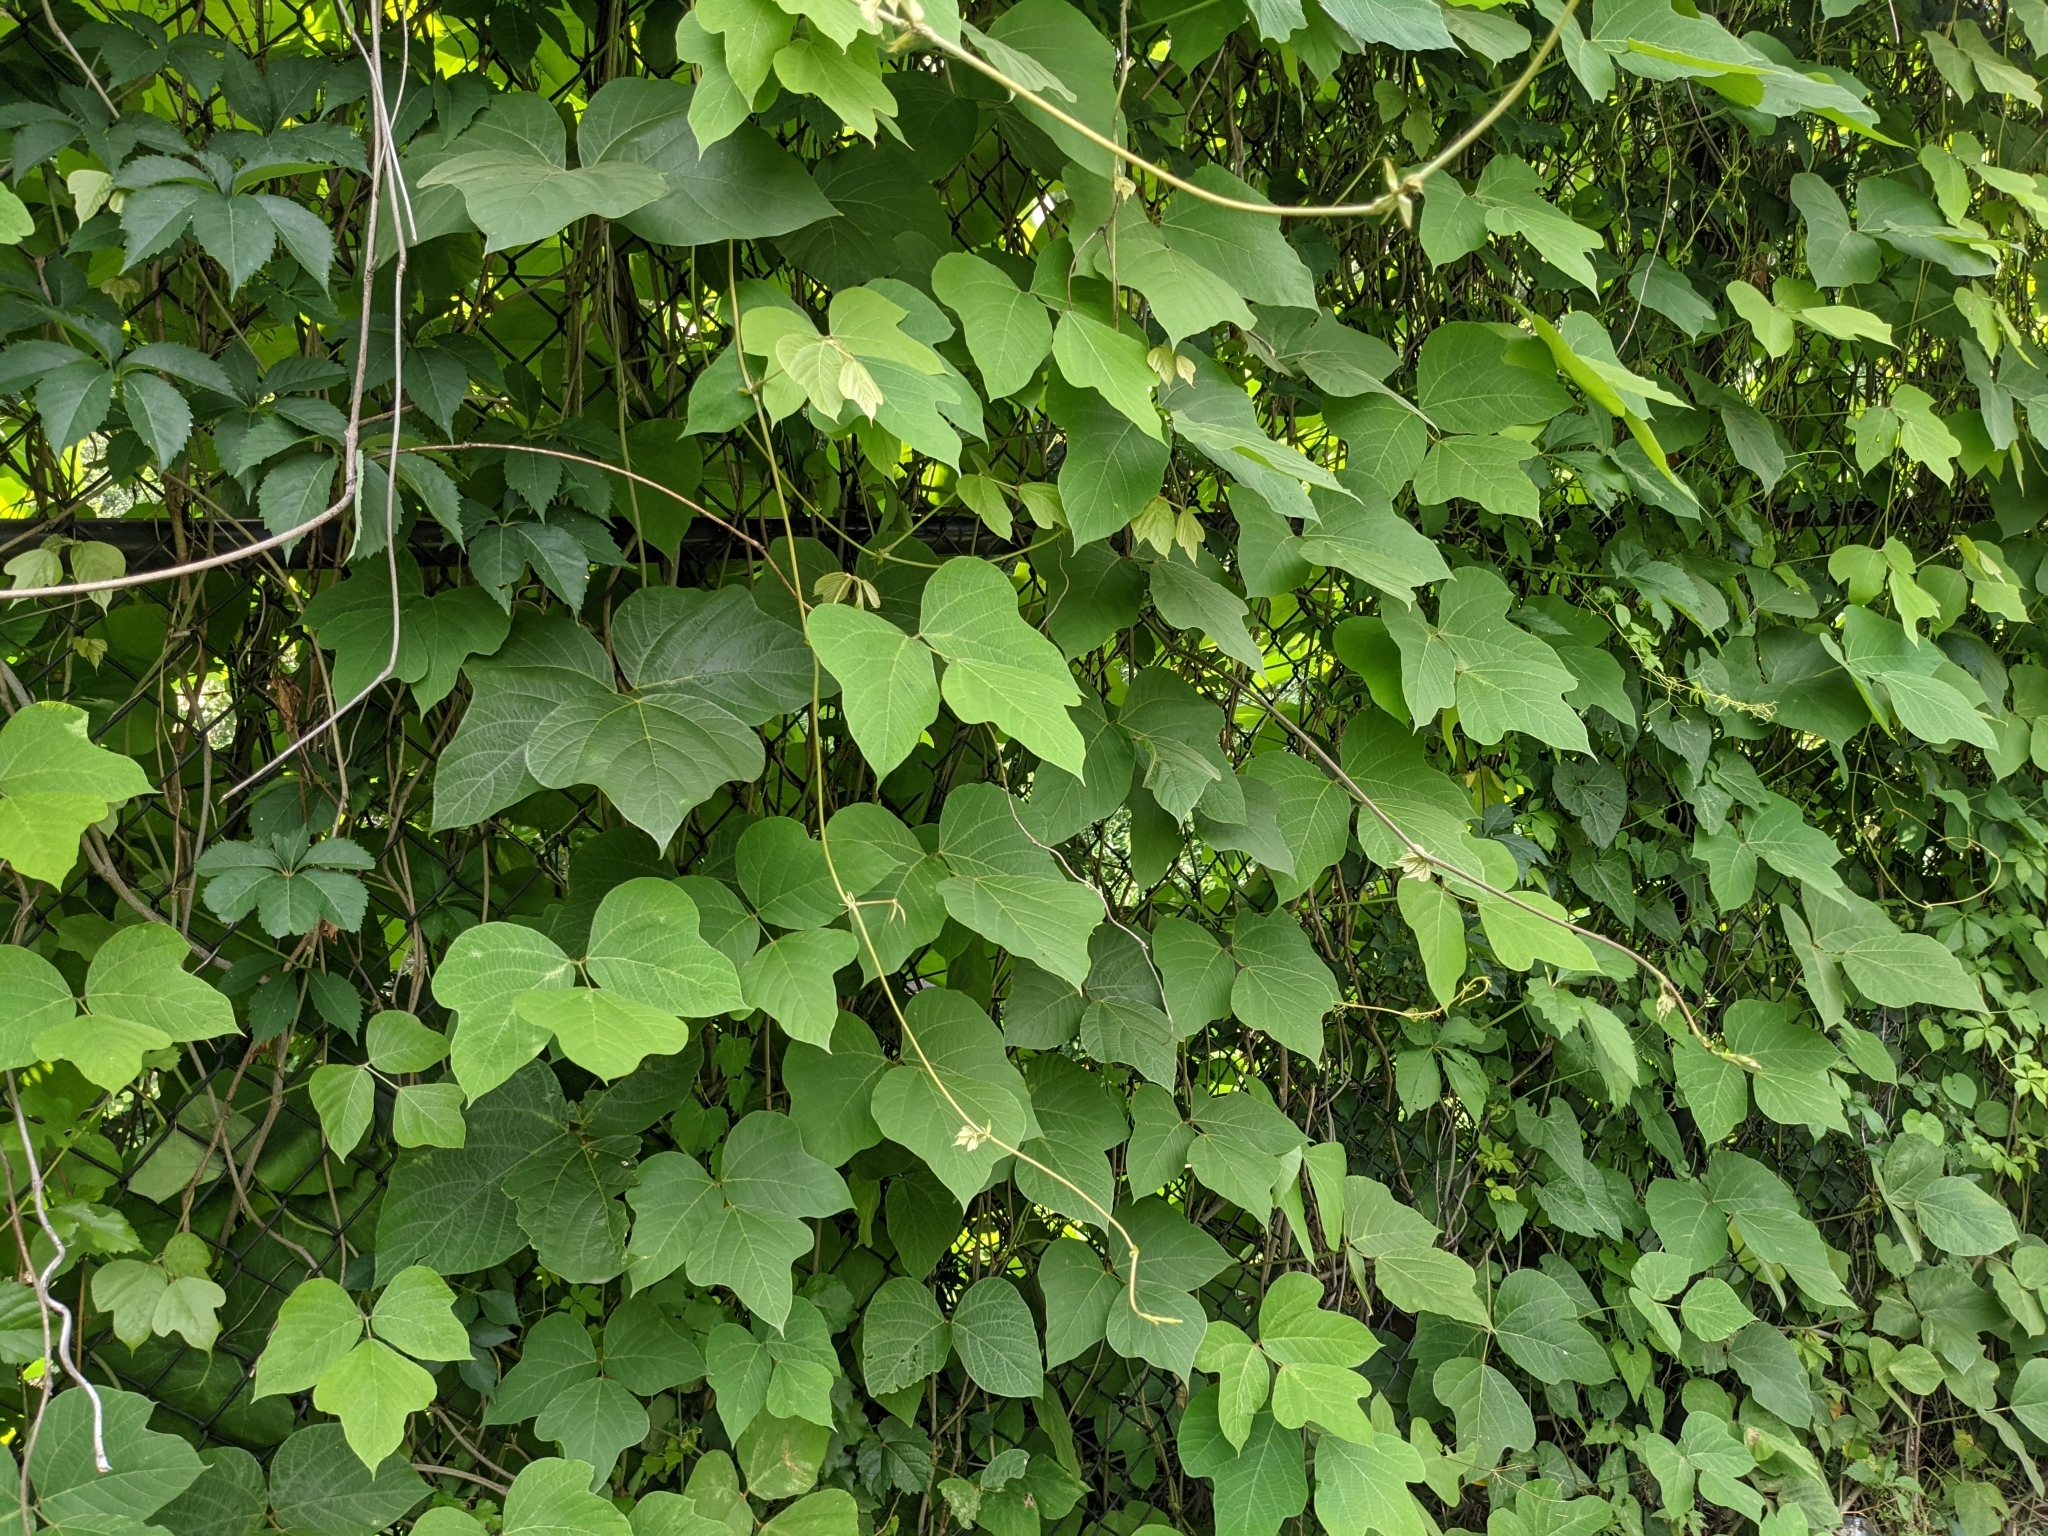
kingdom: Plantae
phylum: Tracheophyta
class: Magnoliopsida
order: Fabales
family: Fabaceae
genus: Pueraria
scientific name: Pueraria montana
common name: Kudzu
